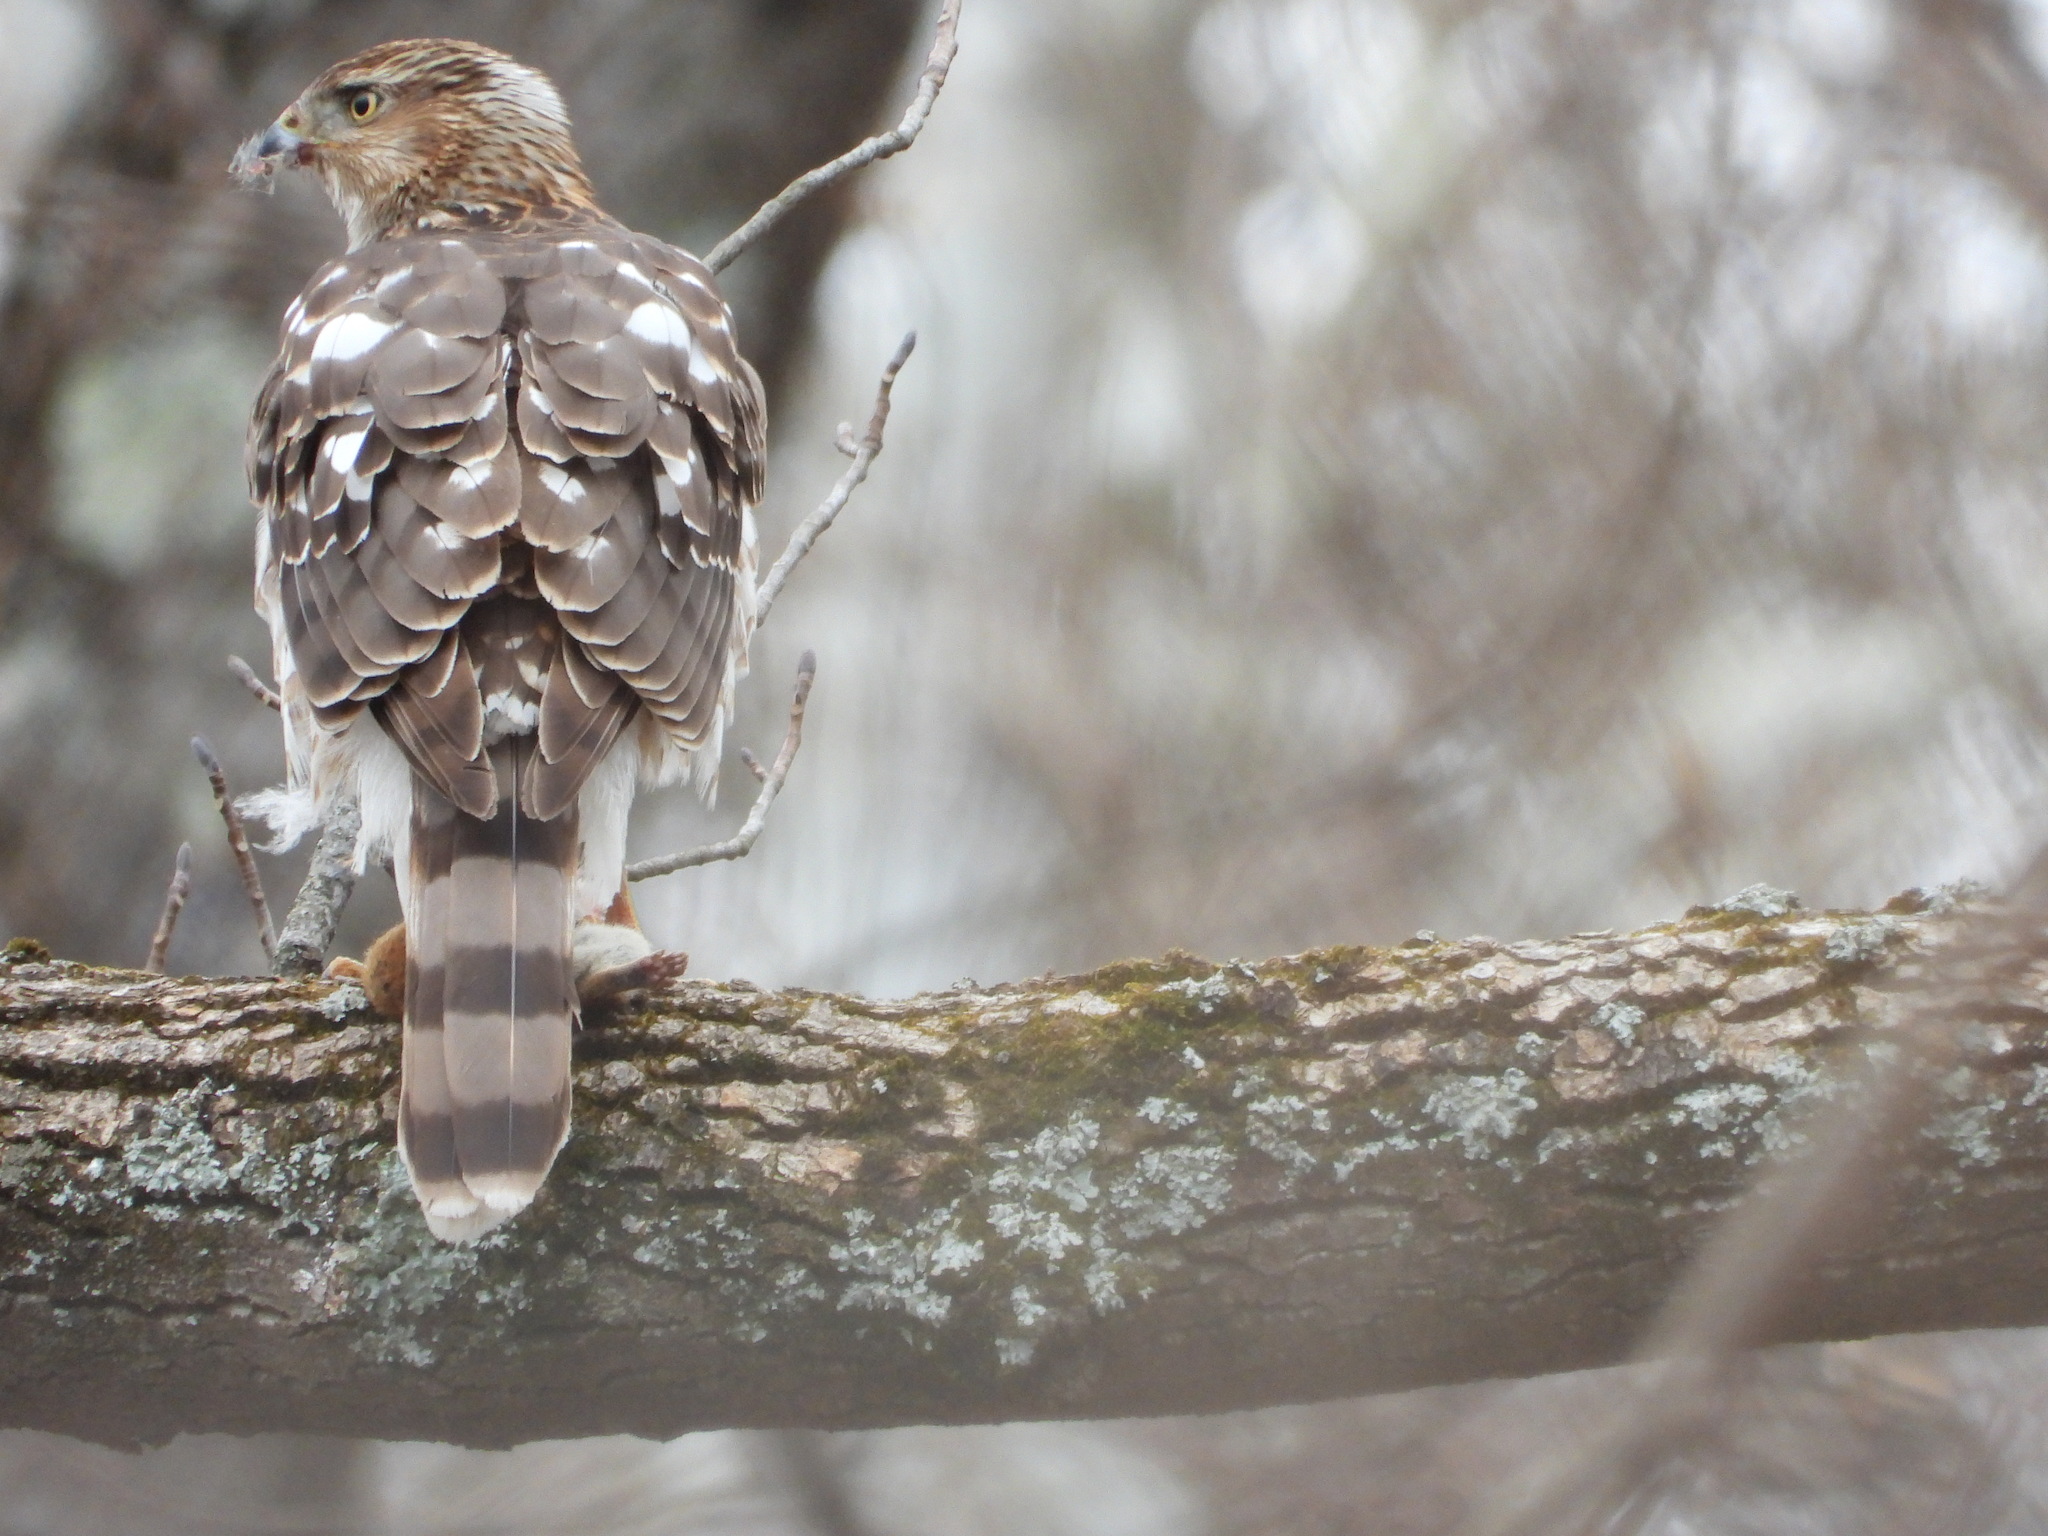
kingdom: Animalia
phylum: Chordata
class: Aves
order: Accipitriformes
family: Accipitridae
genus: Accipiter
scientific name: Accipiter cooperii
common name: Cooper's hawk
